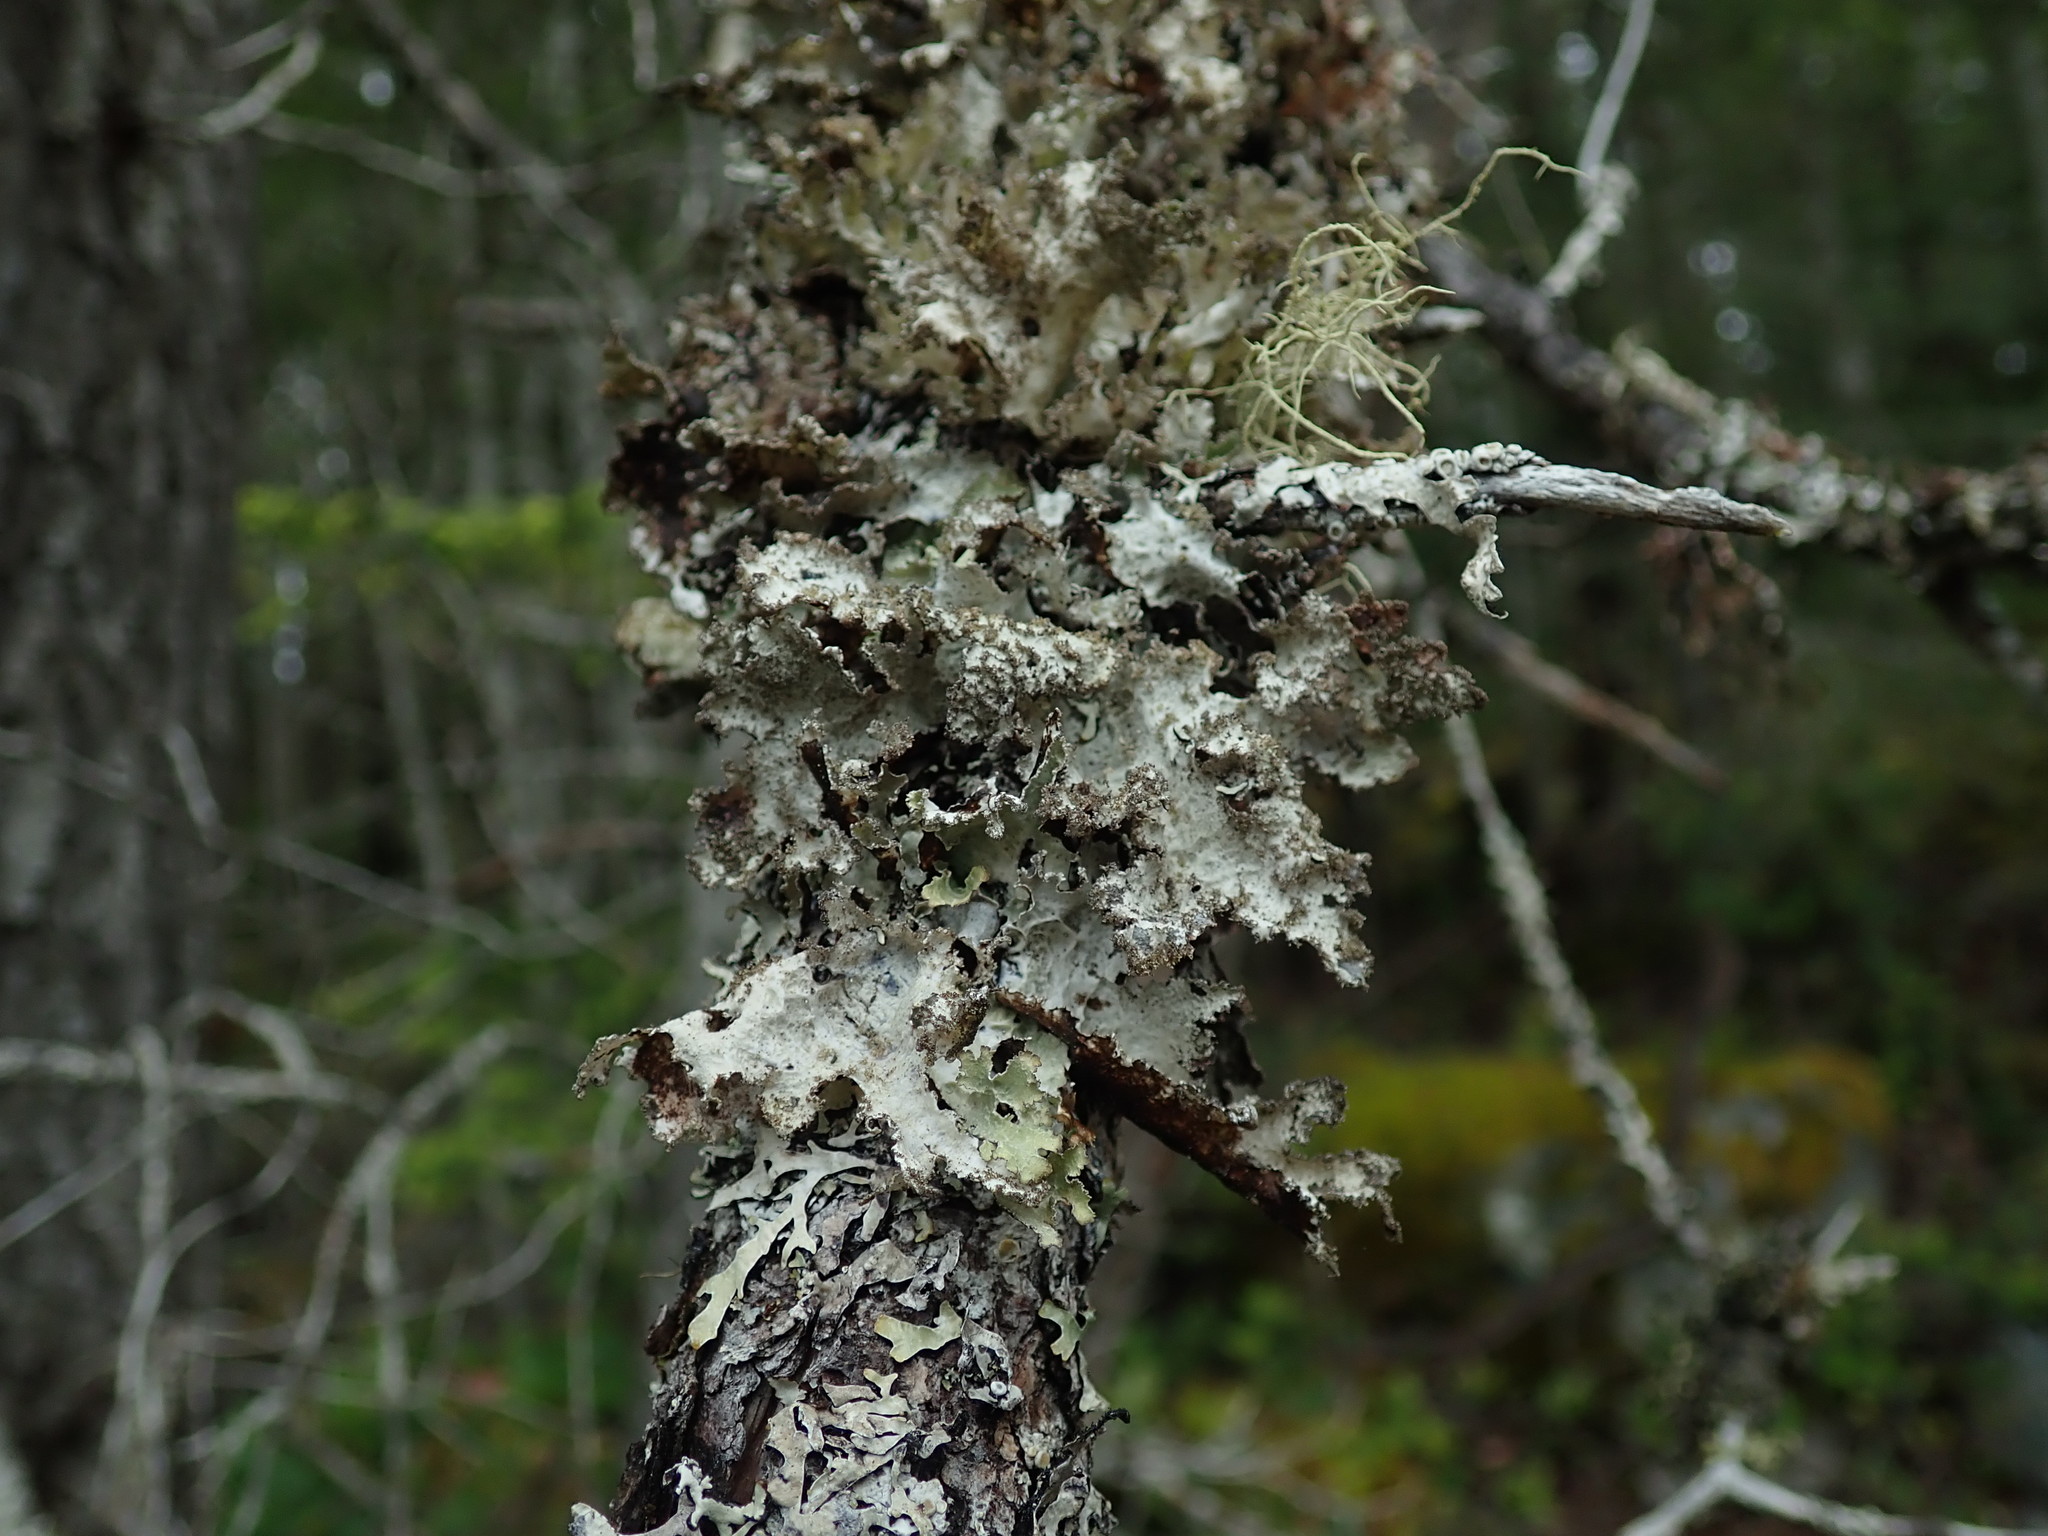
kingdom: Fungi
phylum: Ascomycota
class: Lecanoromycetes
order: Lecanorales
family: Parmeliaceae
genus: Platismatia
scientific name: Platismatia glauca
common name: Varied rag lichen
